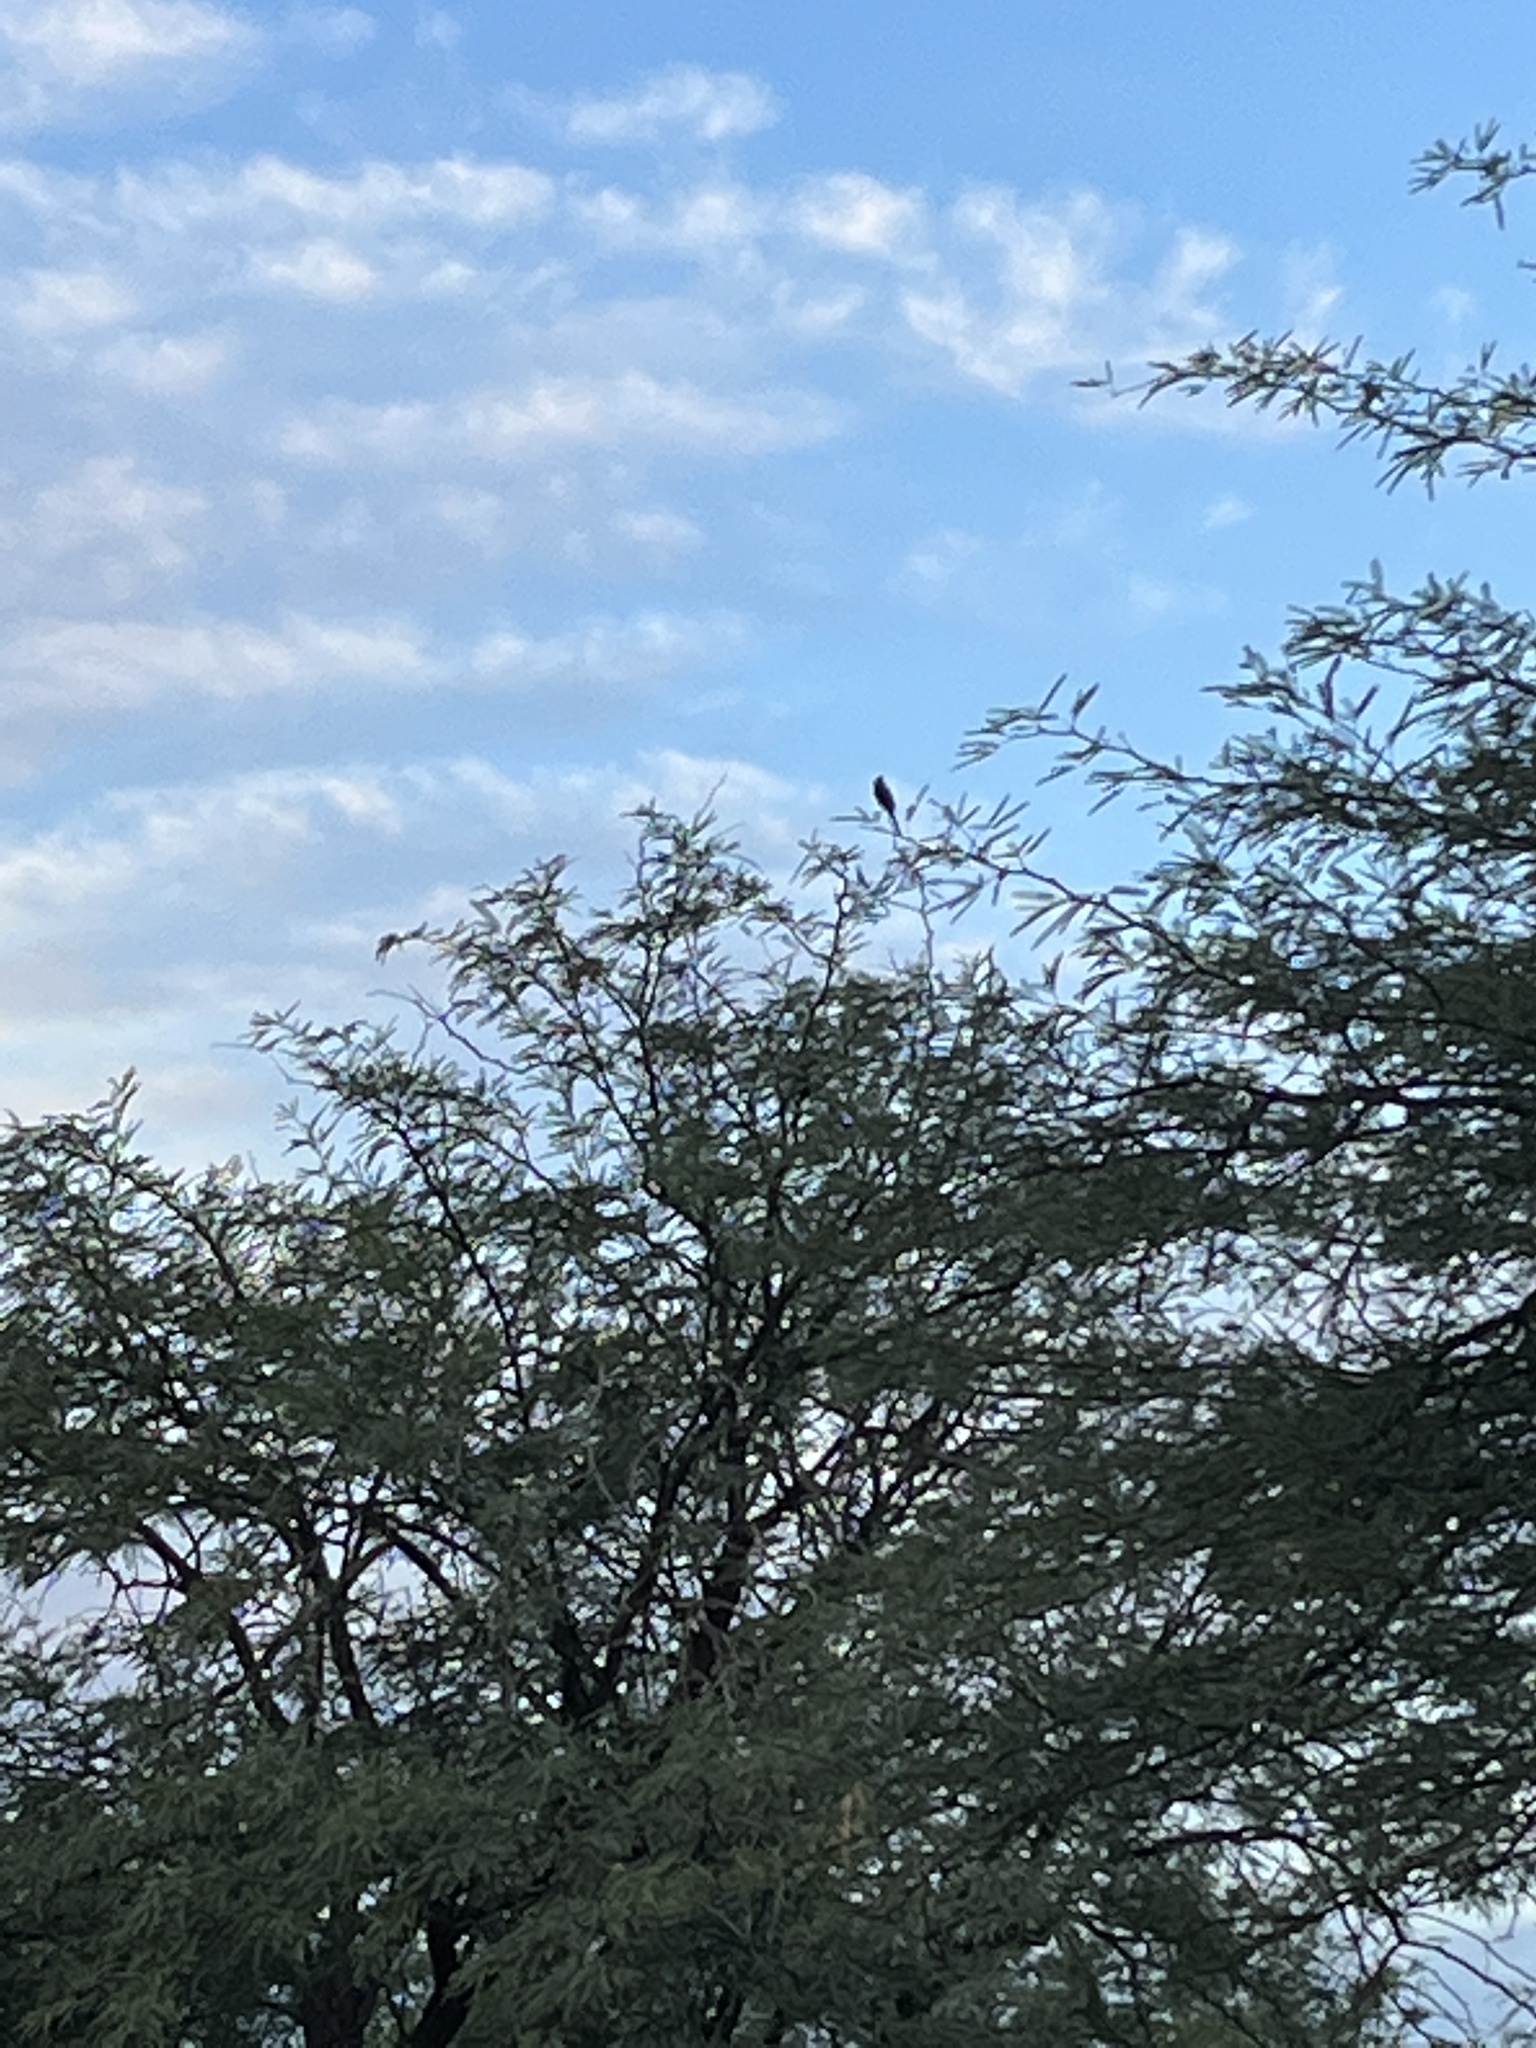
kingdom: Animalia
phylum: Chordata
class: Aves
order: Passeriformes
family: Ptilogonatidae
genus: Phainopepla
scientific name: Phainopepla nitens
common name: Phainopepla
